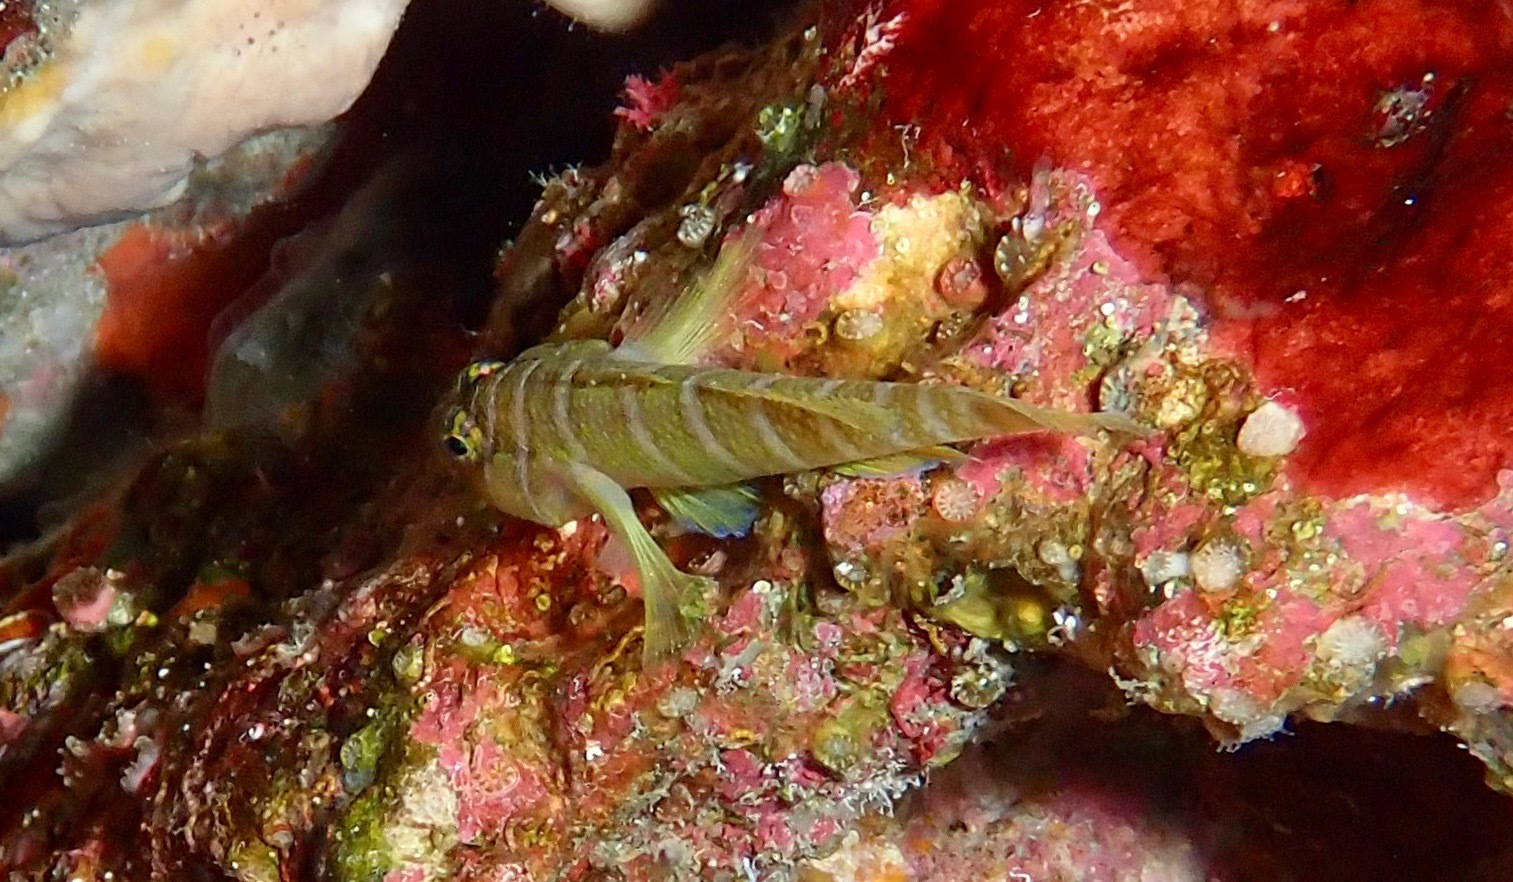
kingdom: Animalia
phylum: Chordata
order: Perciformes
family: Gobiidae
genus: Priolepis
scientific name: Priolepis cincta
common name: Banded reef-goby
